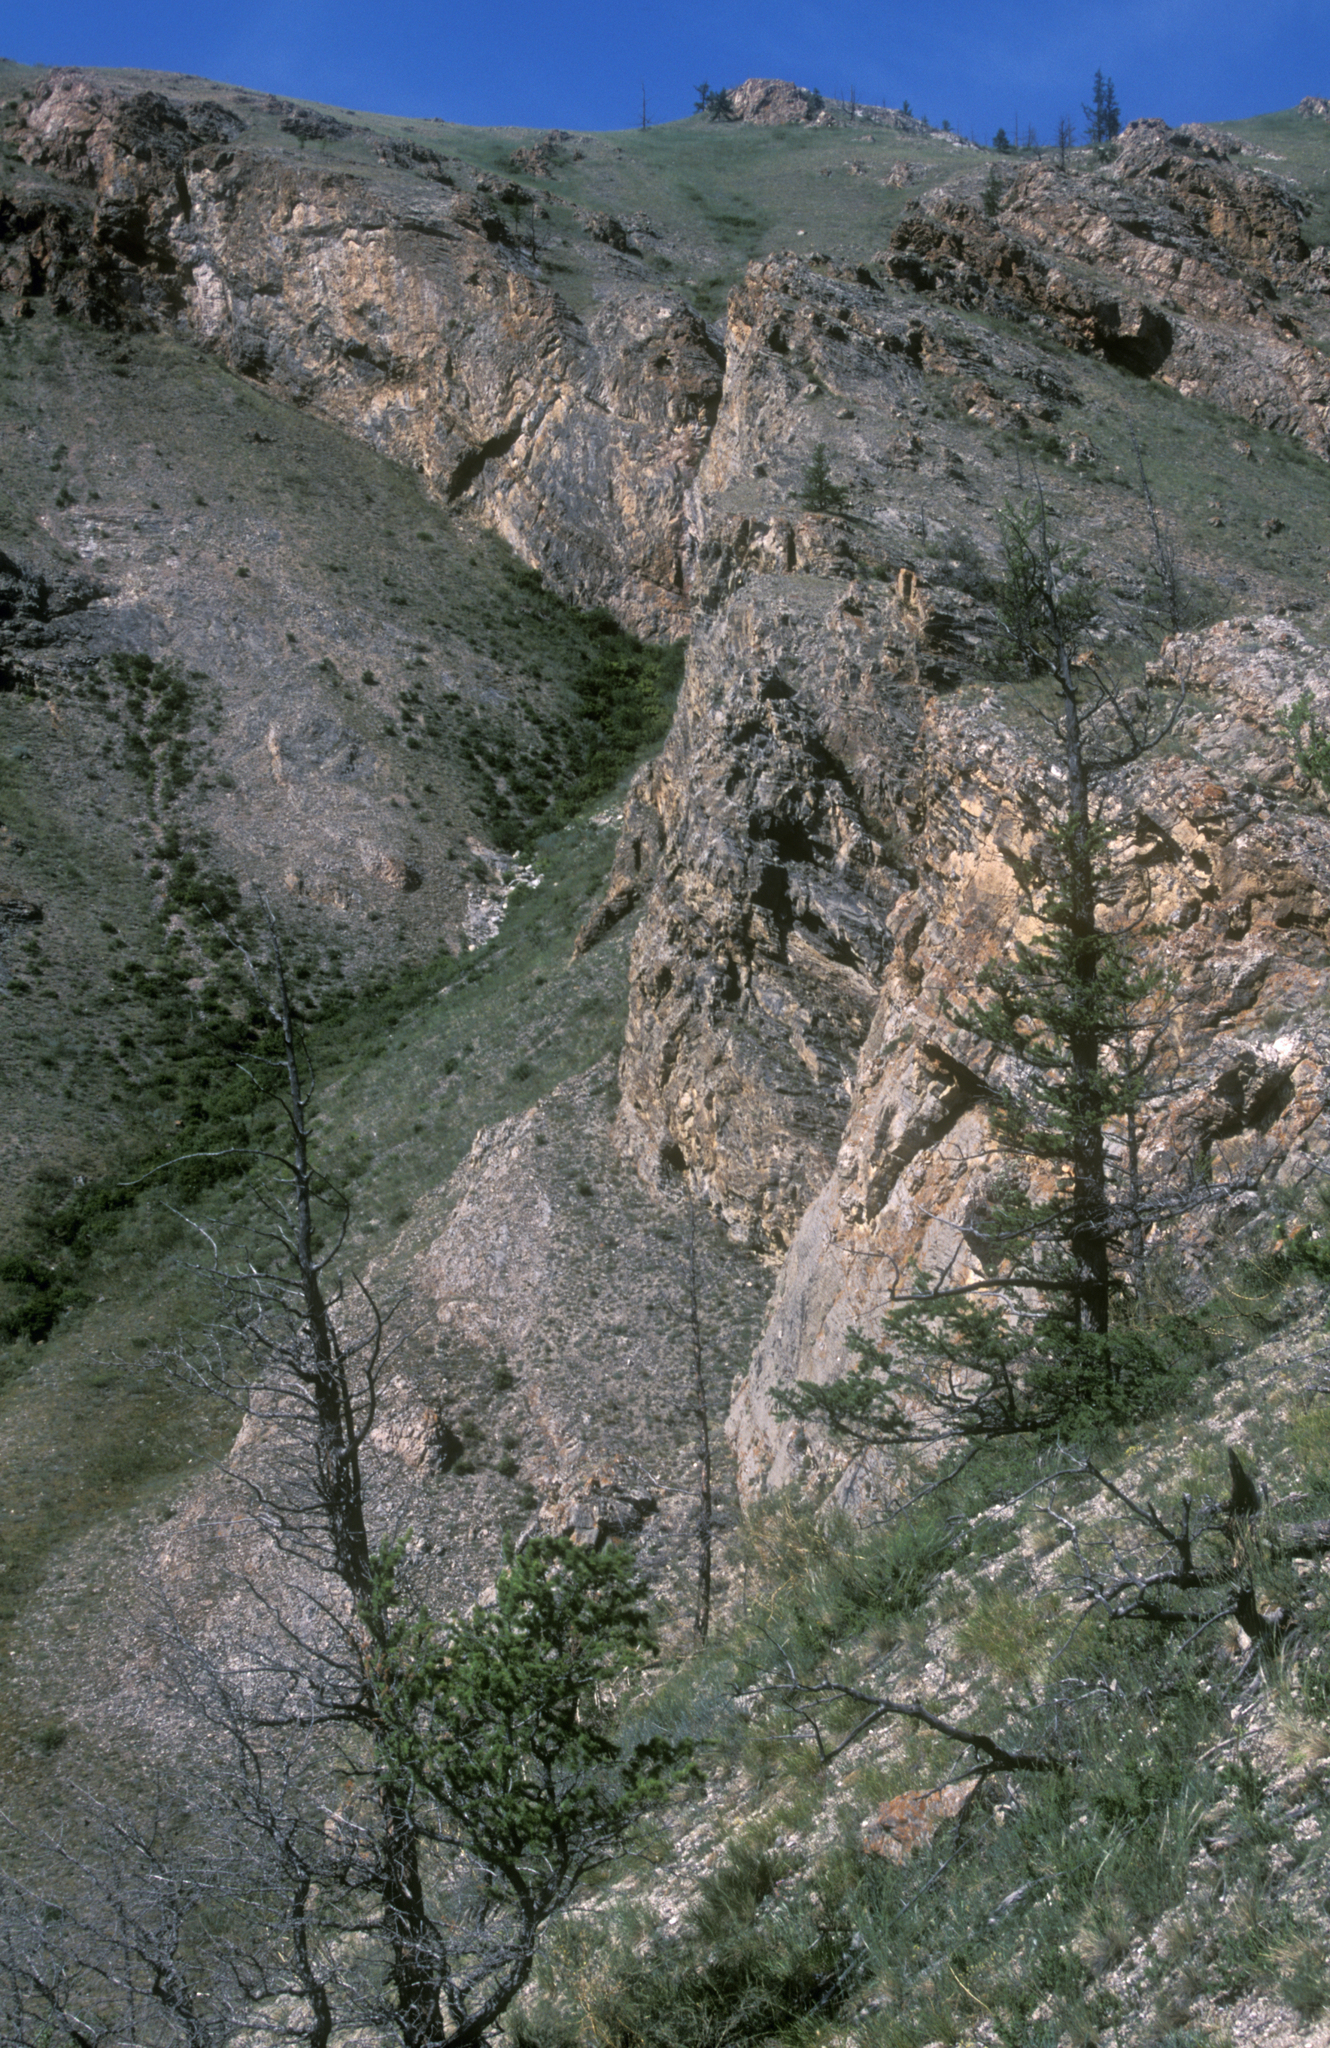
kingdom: Plantae
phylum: Tracheophyta
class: Pinopsida
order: Pinales
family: Pinaceae
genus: Larix
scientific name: Larix sibirica
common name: Siberian larch
